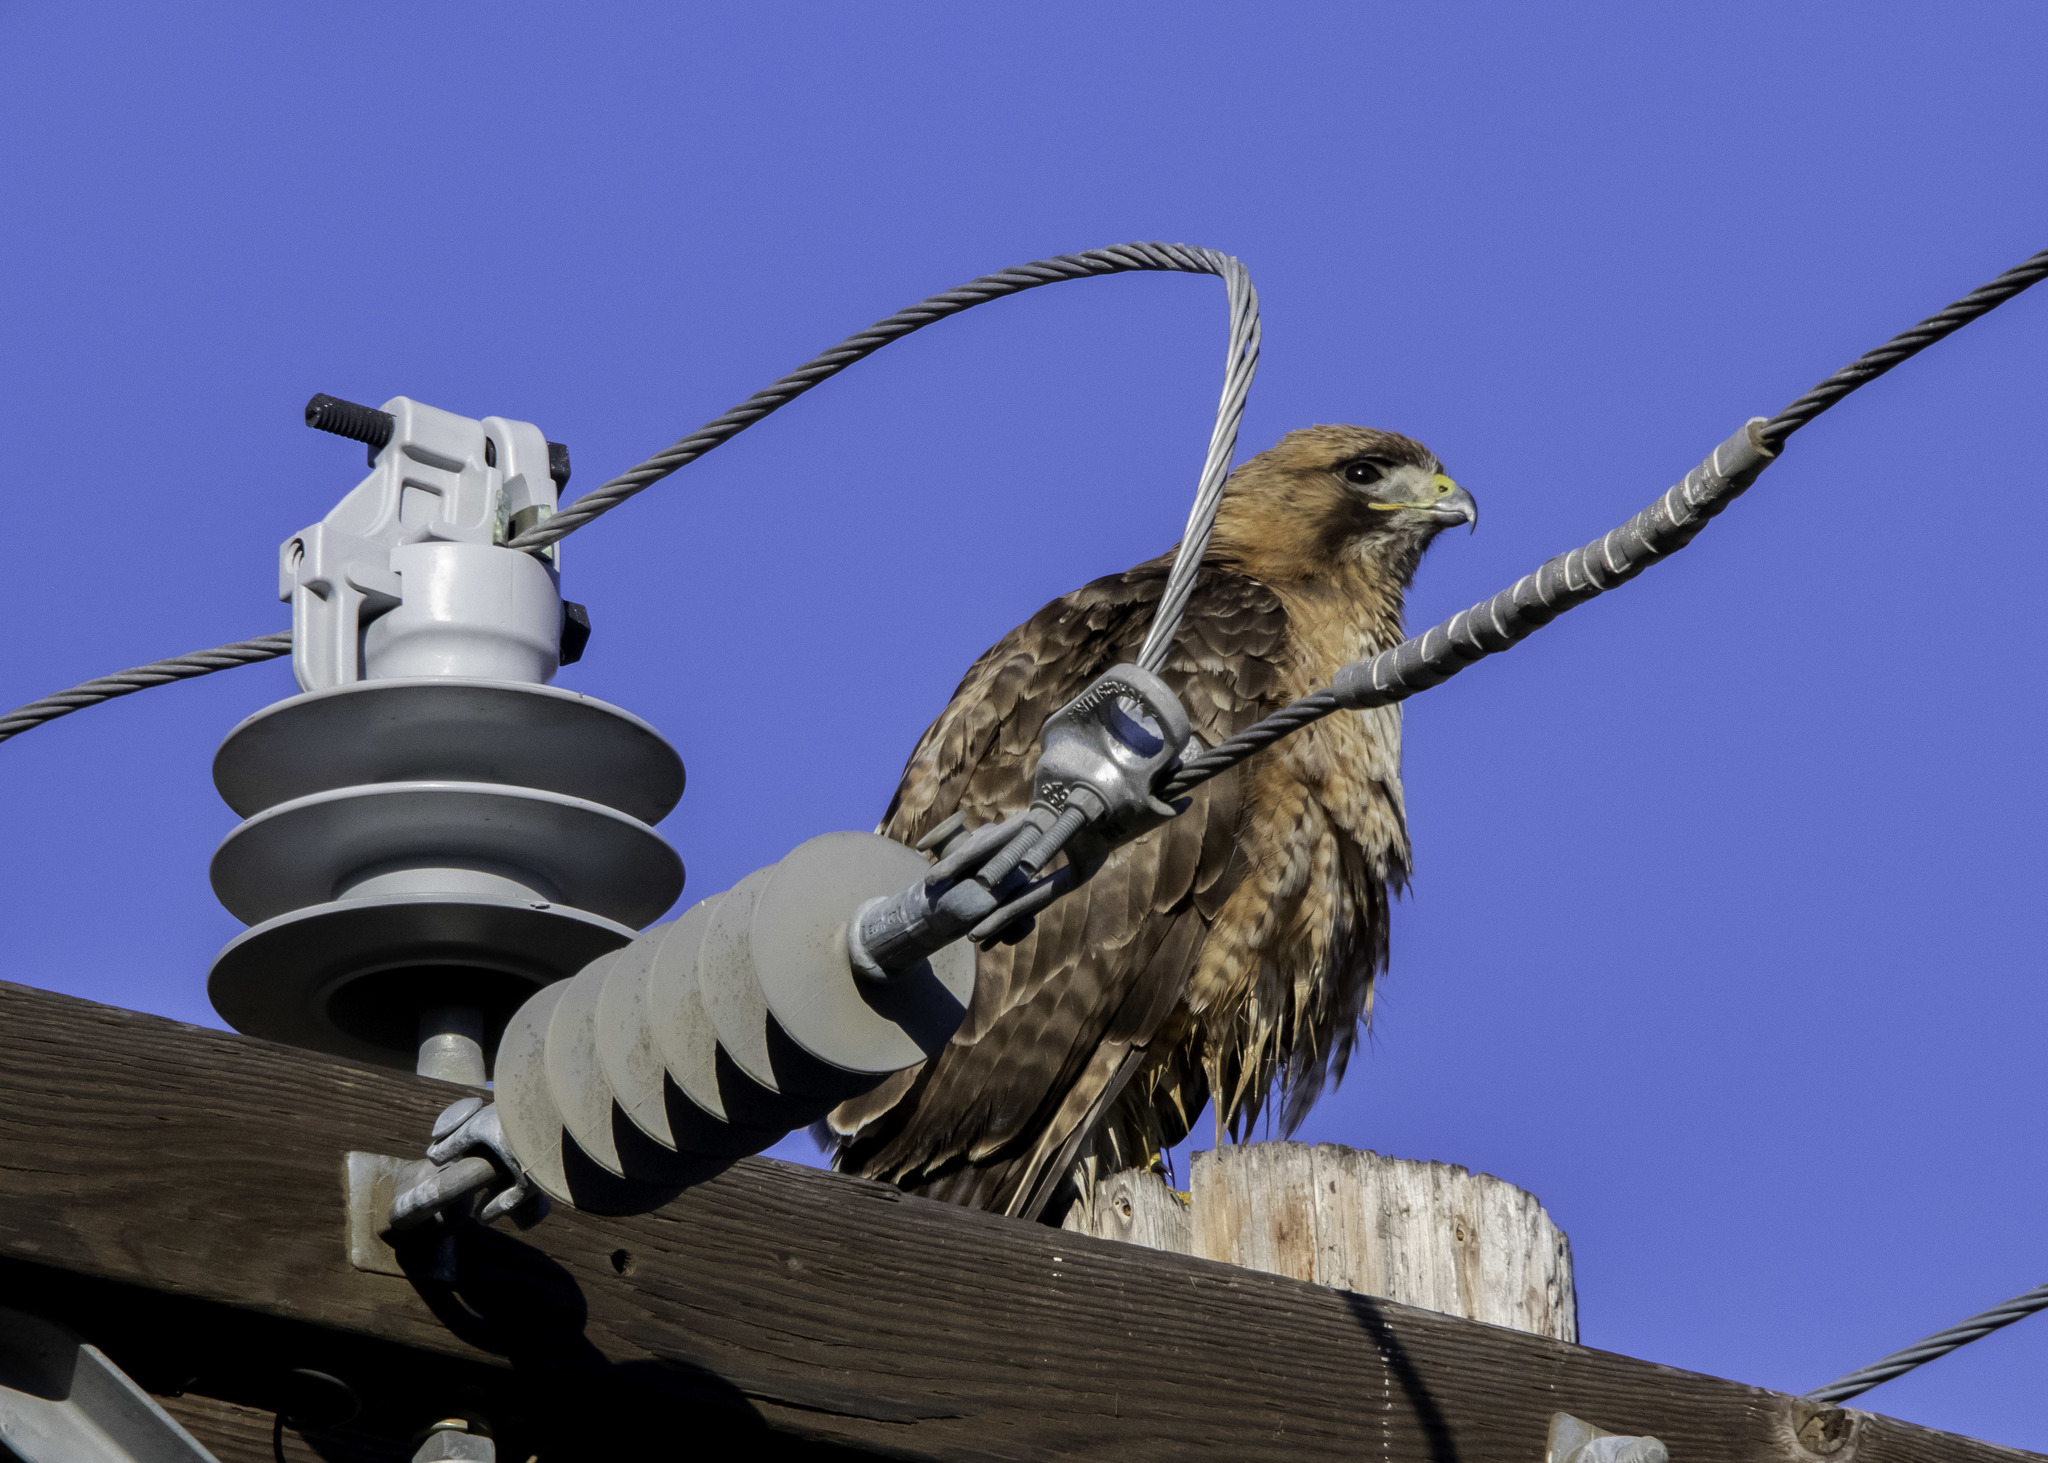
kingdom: Animalia
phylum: Chordata
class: Aves
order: Accipitriformes
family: Accipitridae
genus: Buteo
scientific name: Buteo jamaicensis
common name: Red-tailed hawk
